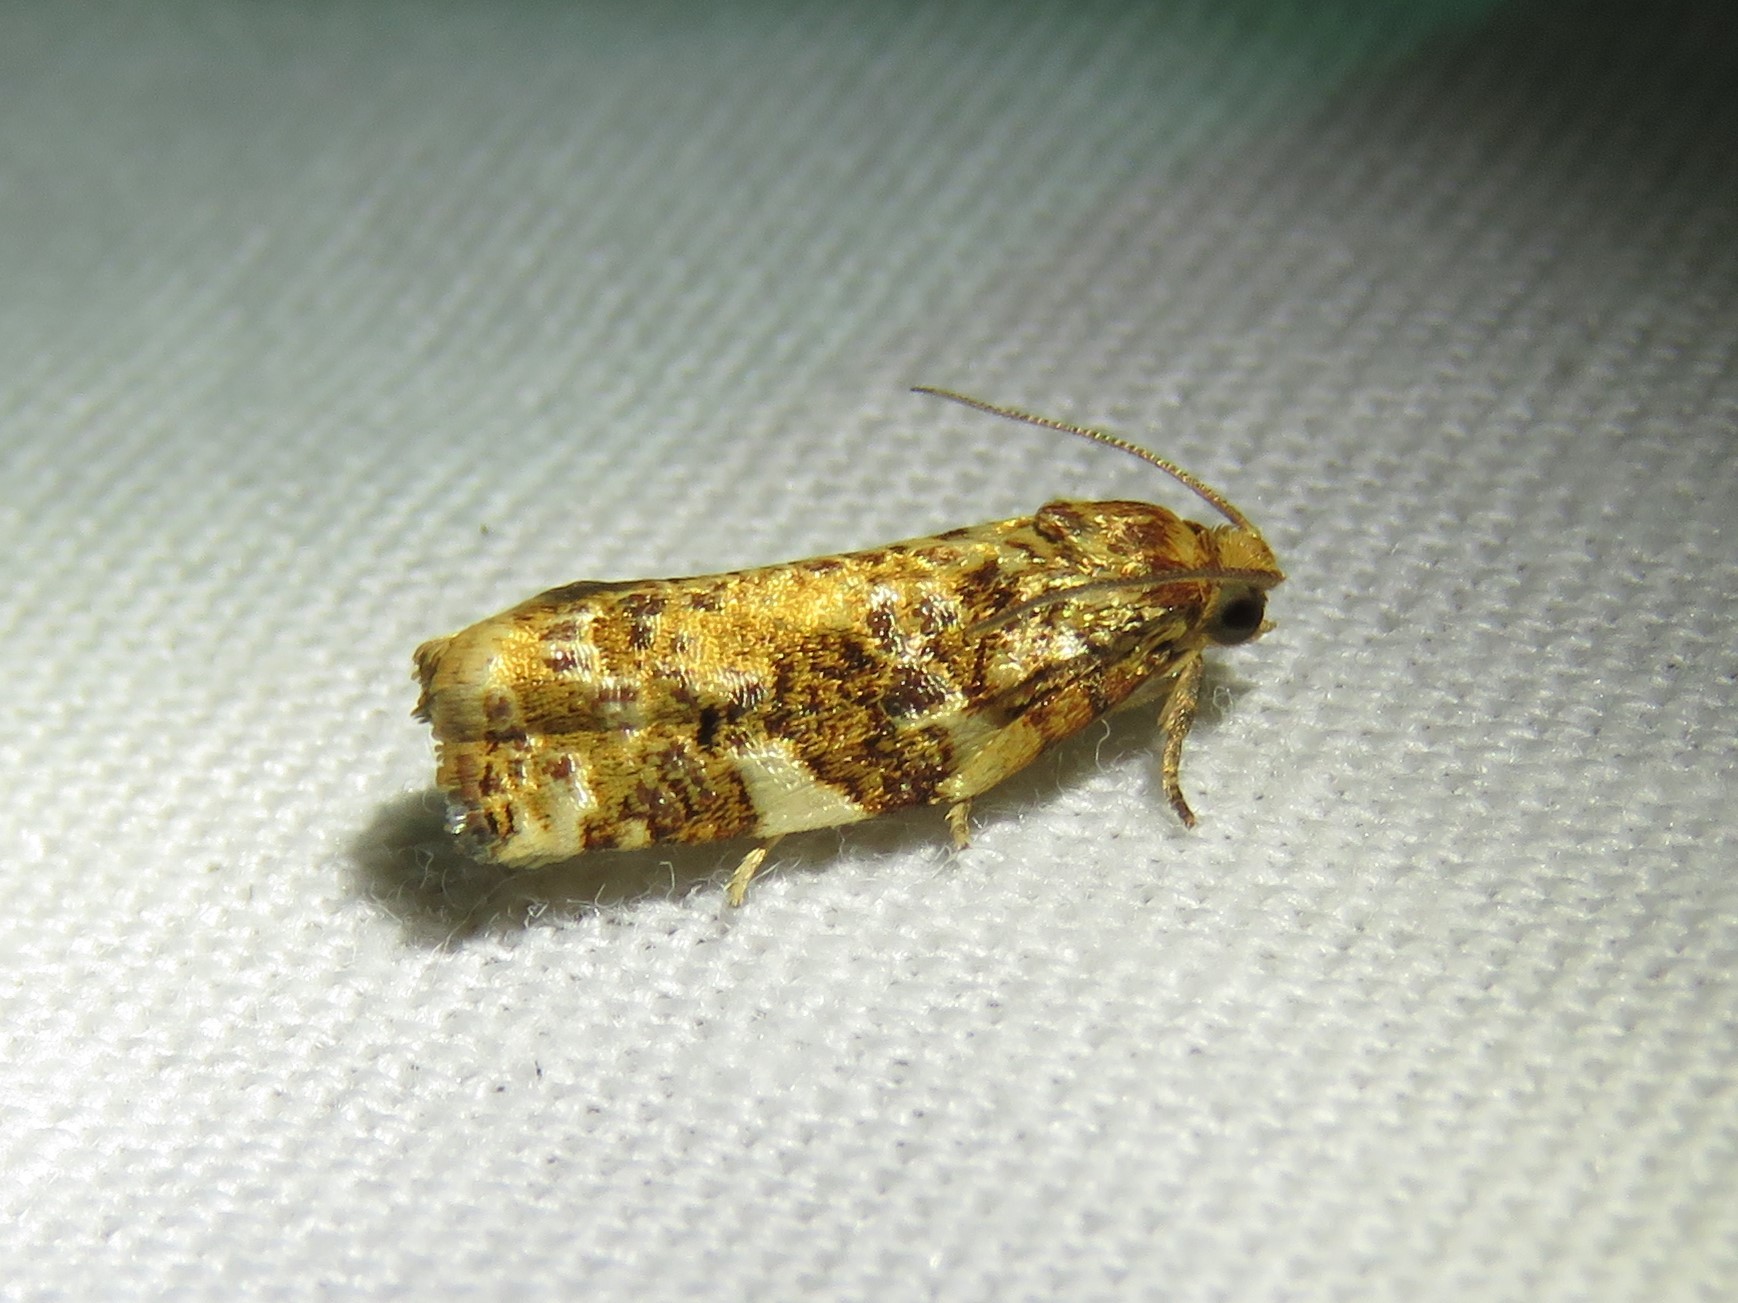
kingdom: Animalia
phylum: Arthropoda
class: Insecta
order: Lepidoptera
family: Tortricidae
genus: Archips
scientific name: Archips argyrospila
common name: Fruit-tree leafroller moth
